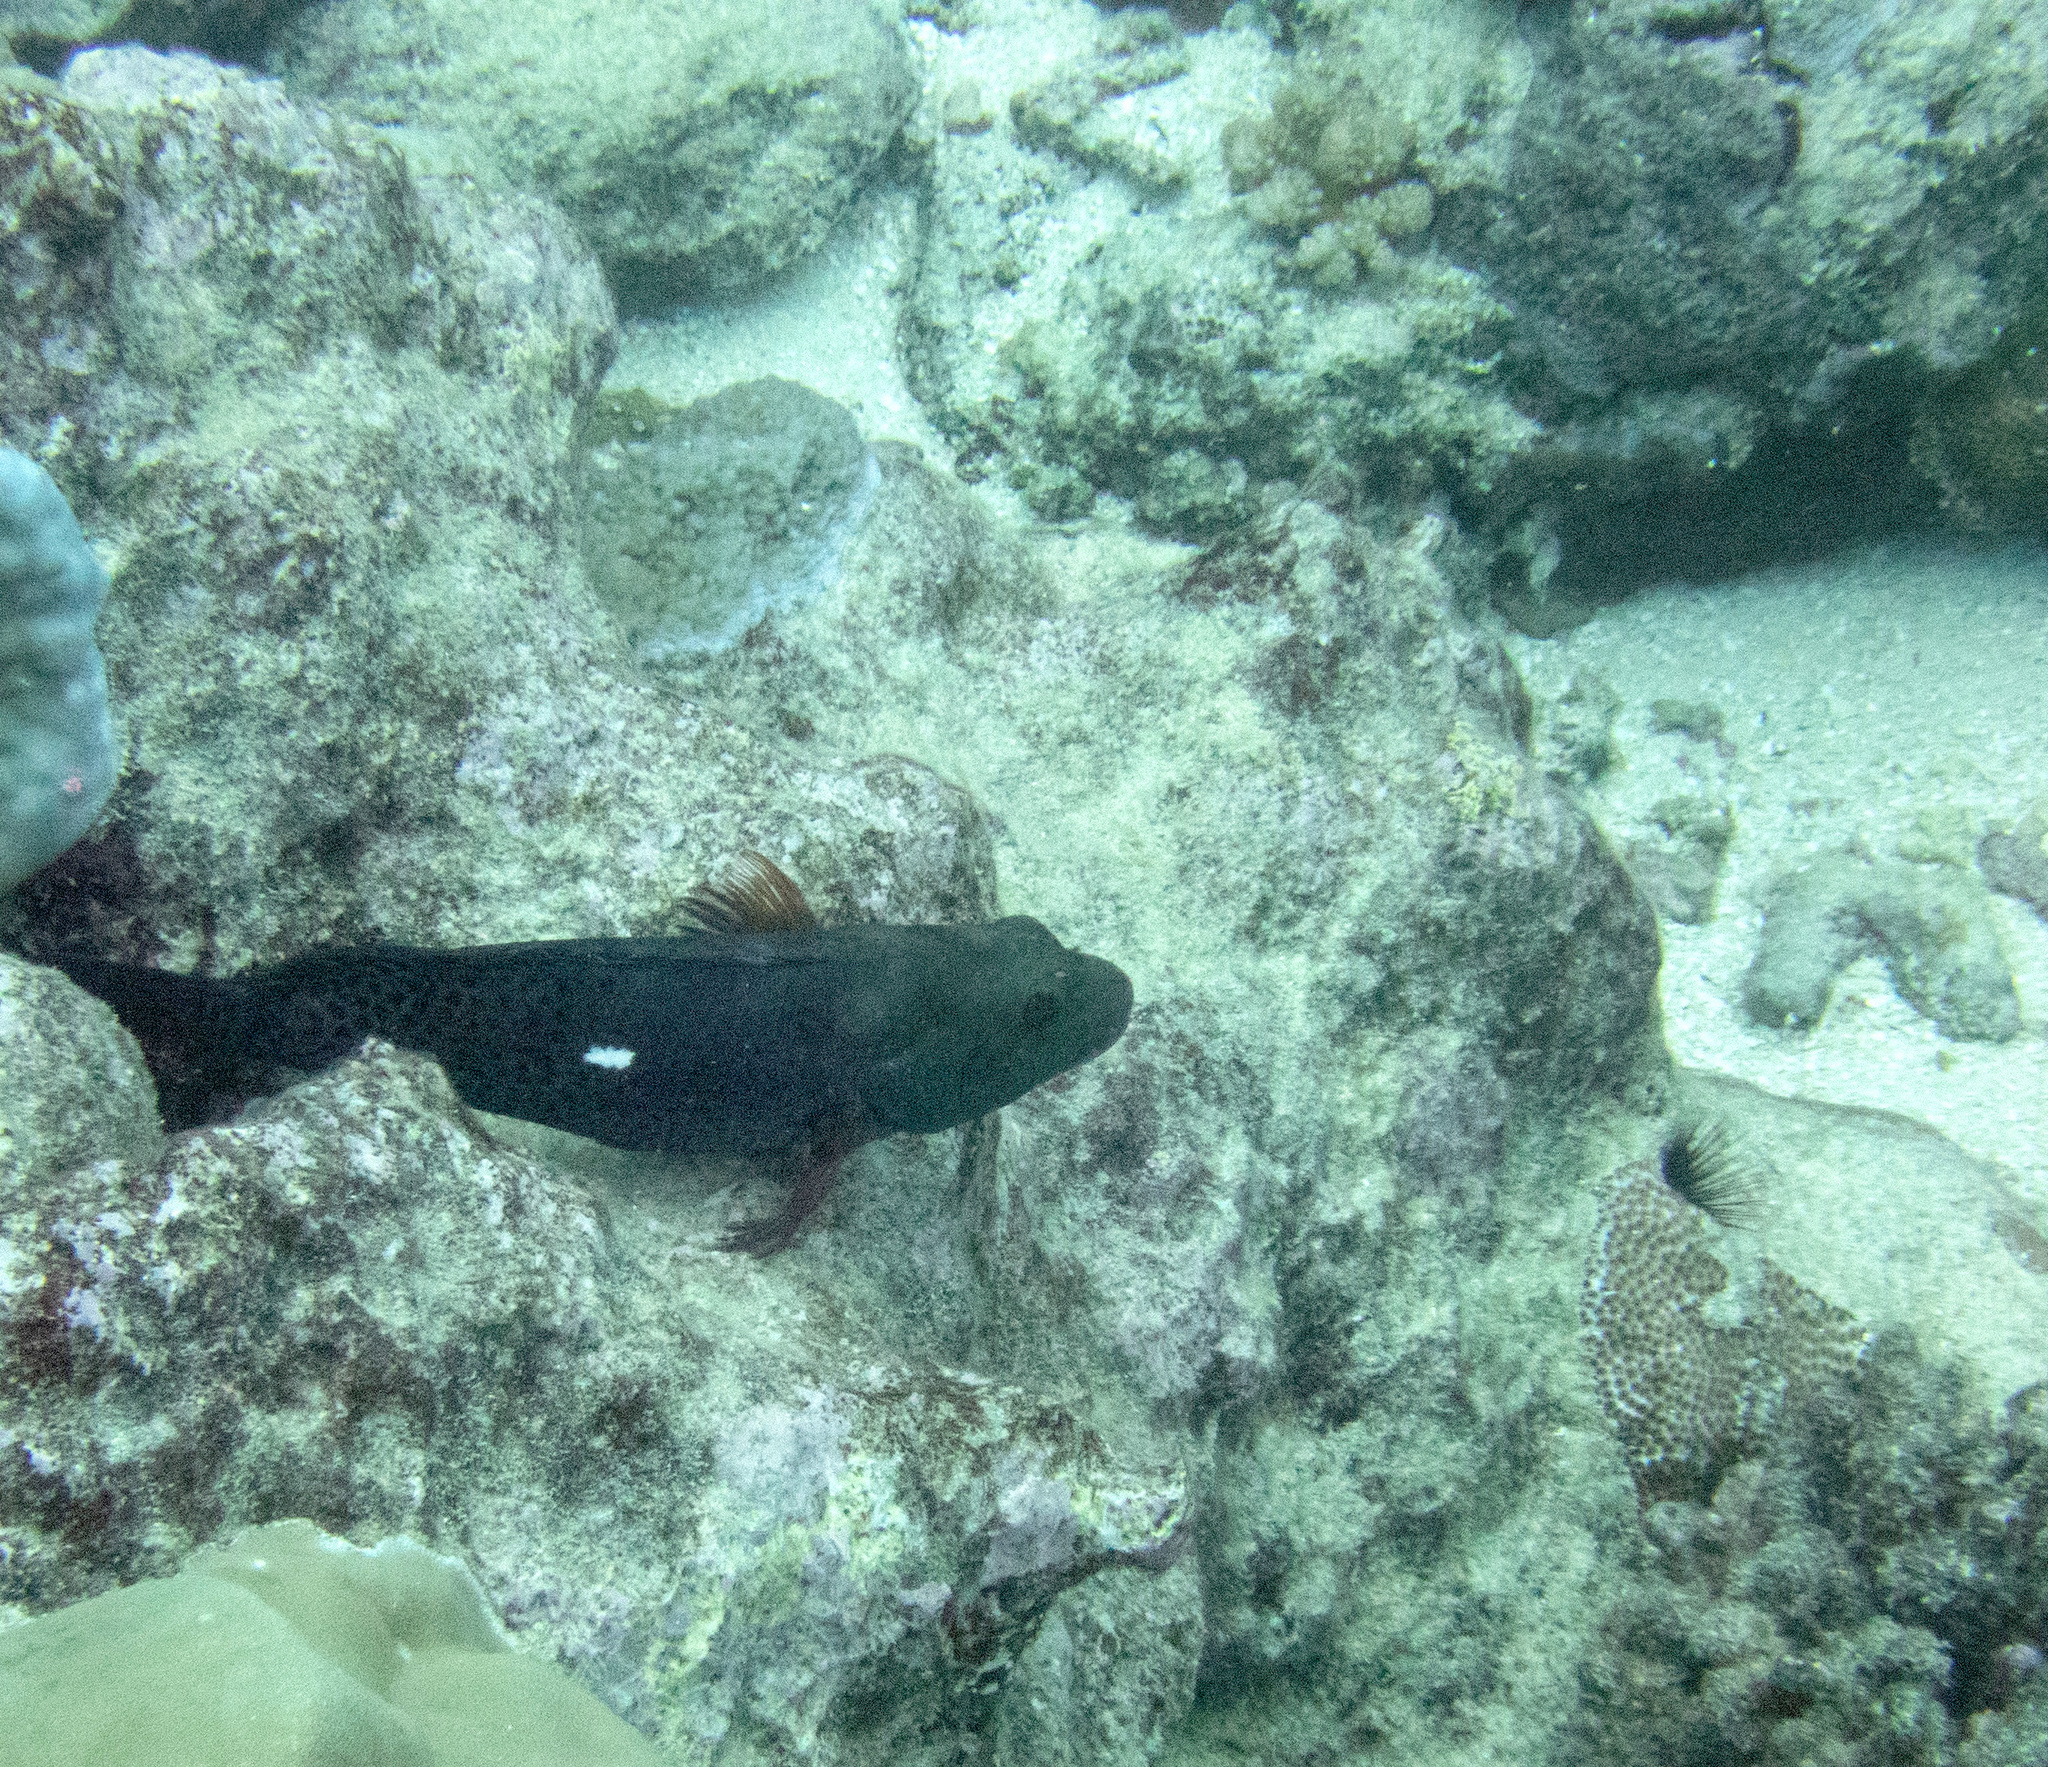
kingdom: Animalia
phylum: Chordata
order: Perciformes
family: Cirrhitidae
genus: Paracirrhites
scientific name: Paracirrhites hemistictus
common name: Halfspotted hawkfish
